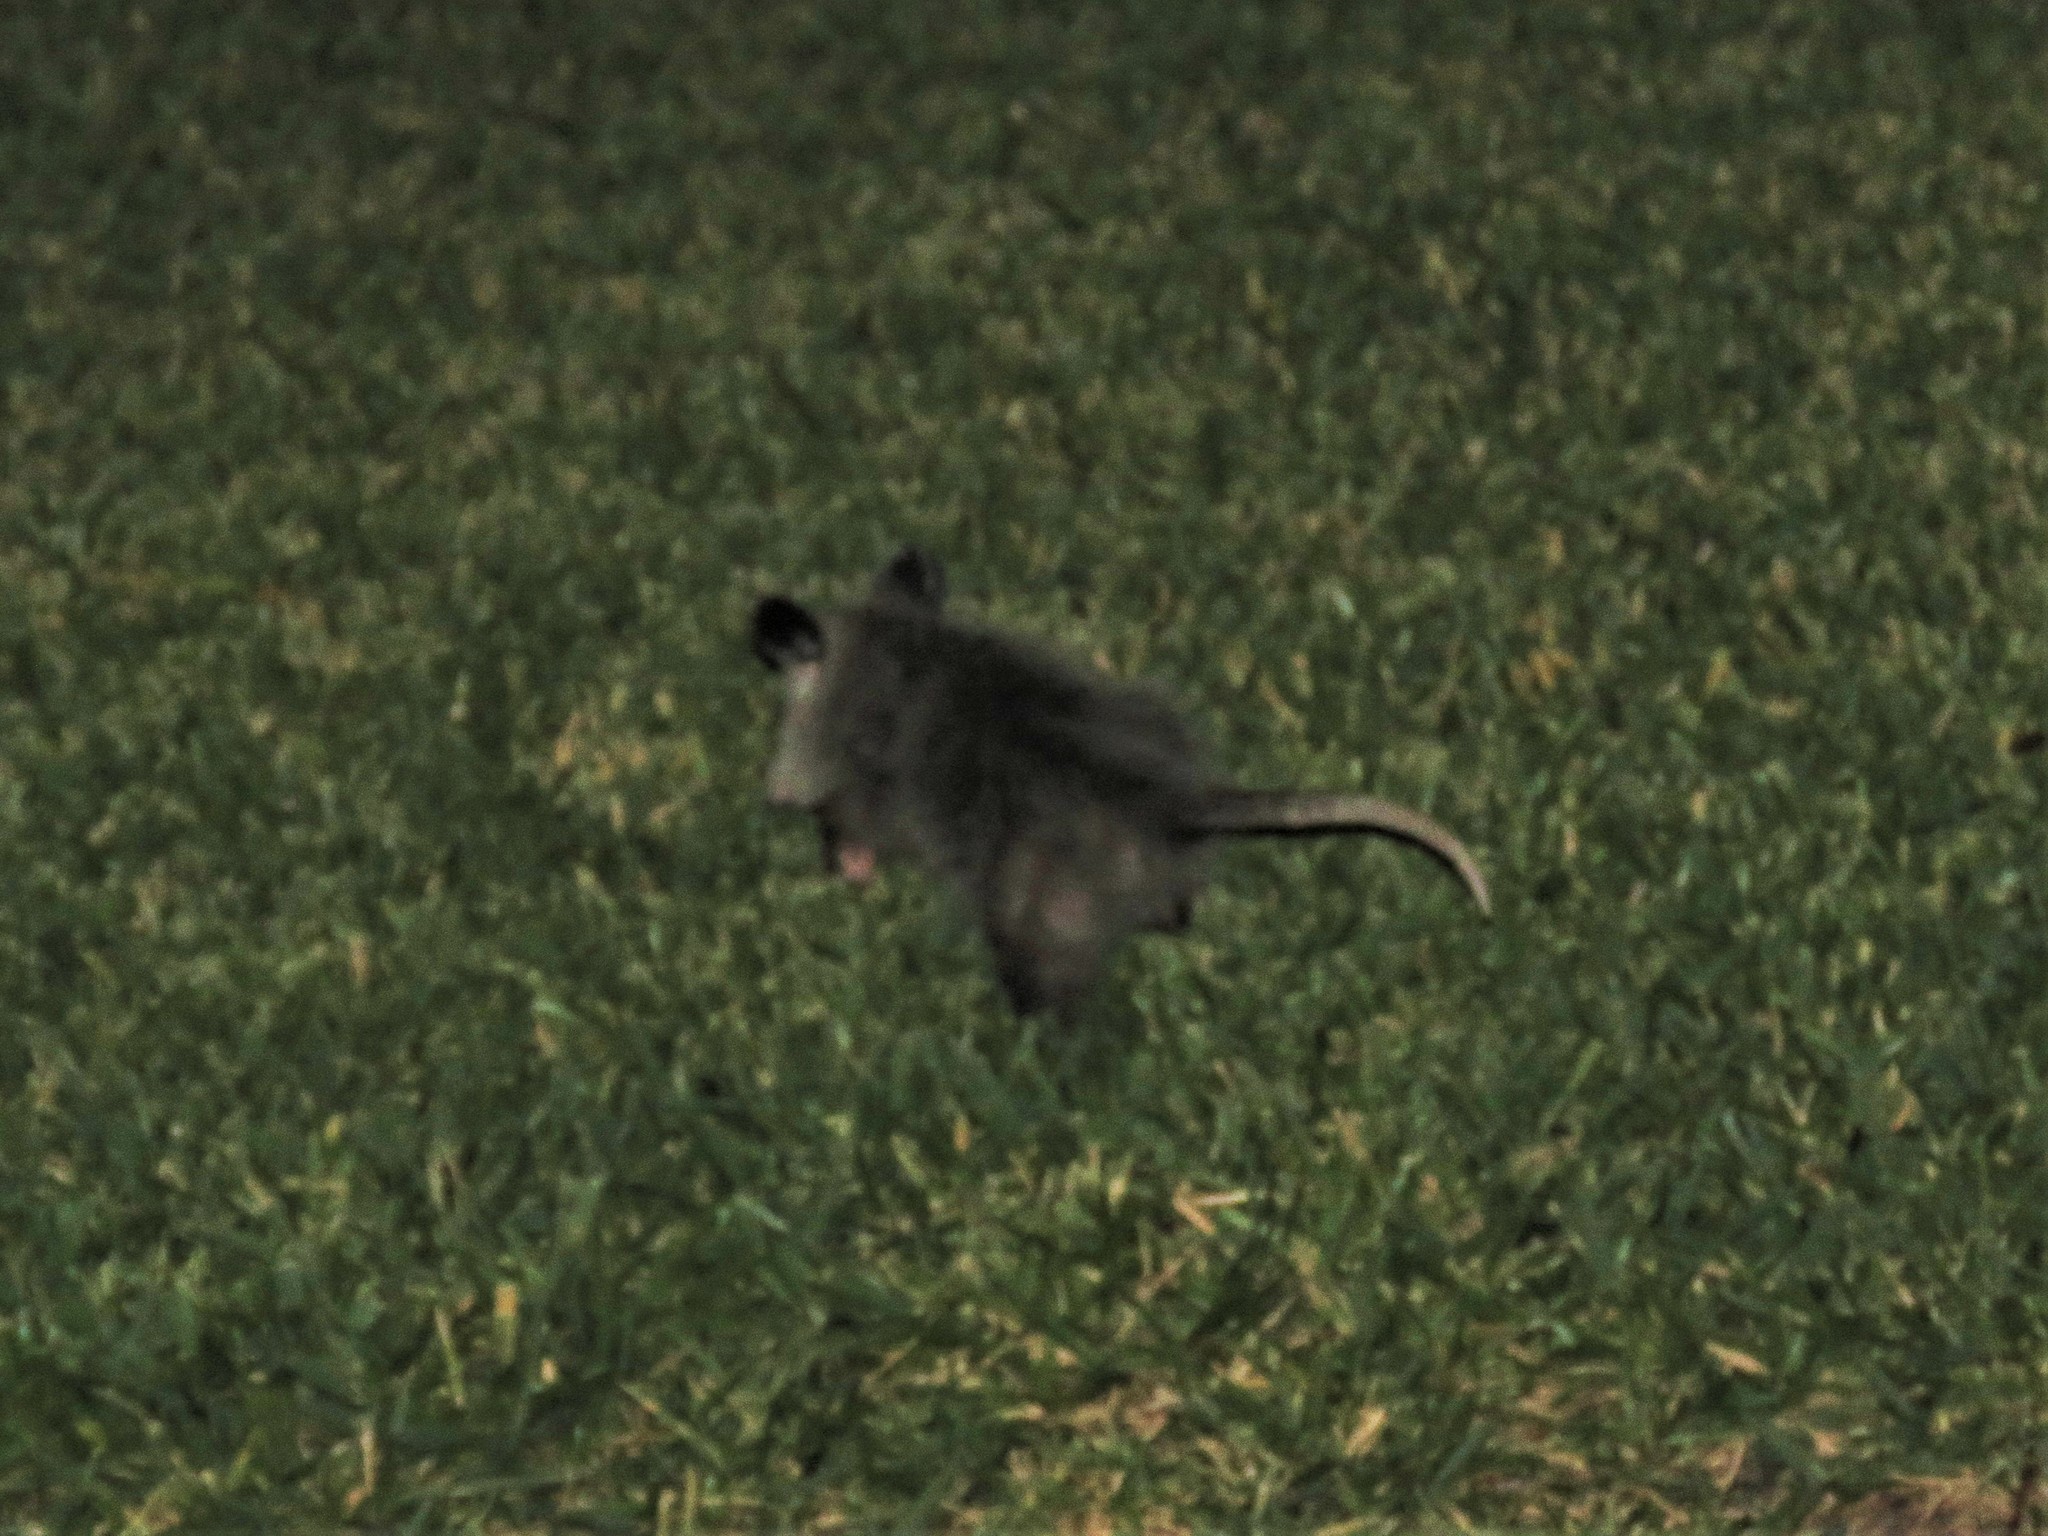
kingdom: Animalia
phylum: Chordata
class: Mammalia
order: Didelphimorphia
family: Didelphidae
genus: Didelphis
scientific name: Didelphis virginiana
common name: Virginia opossum
